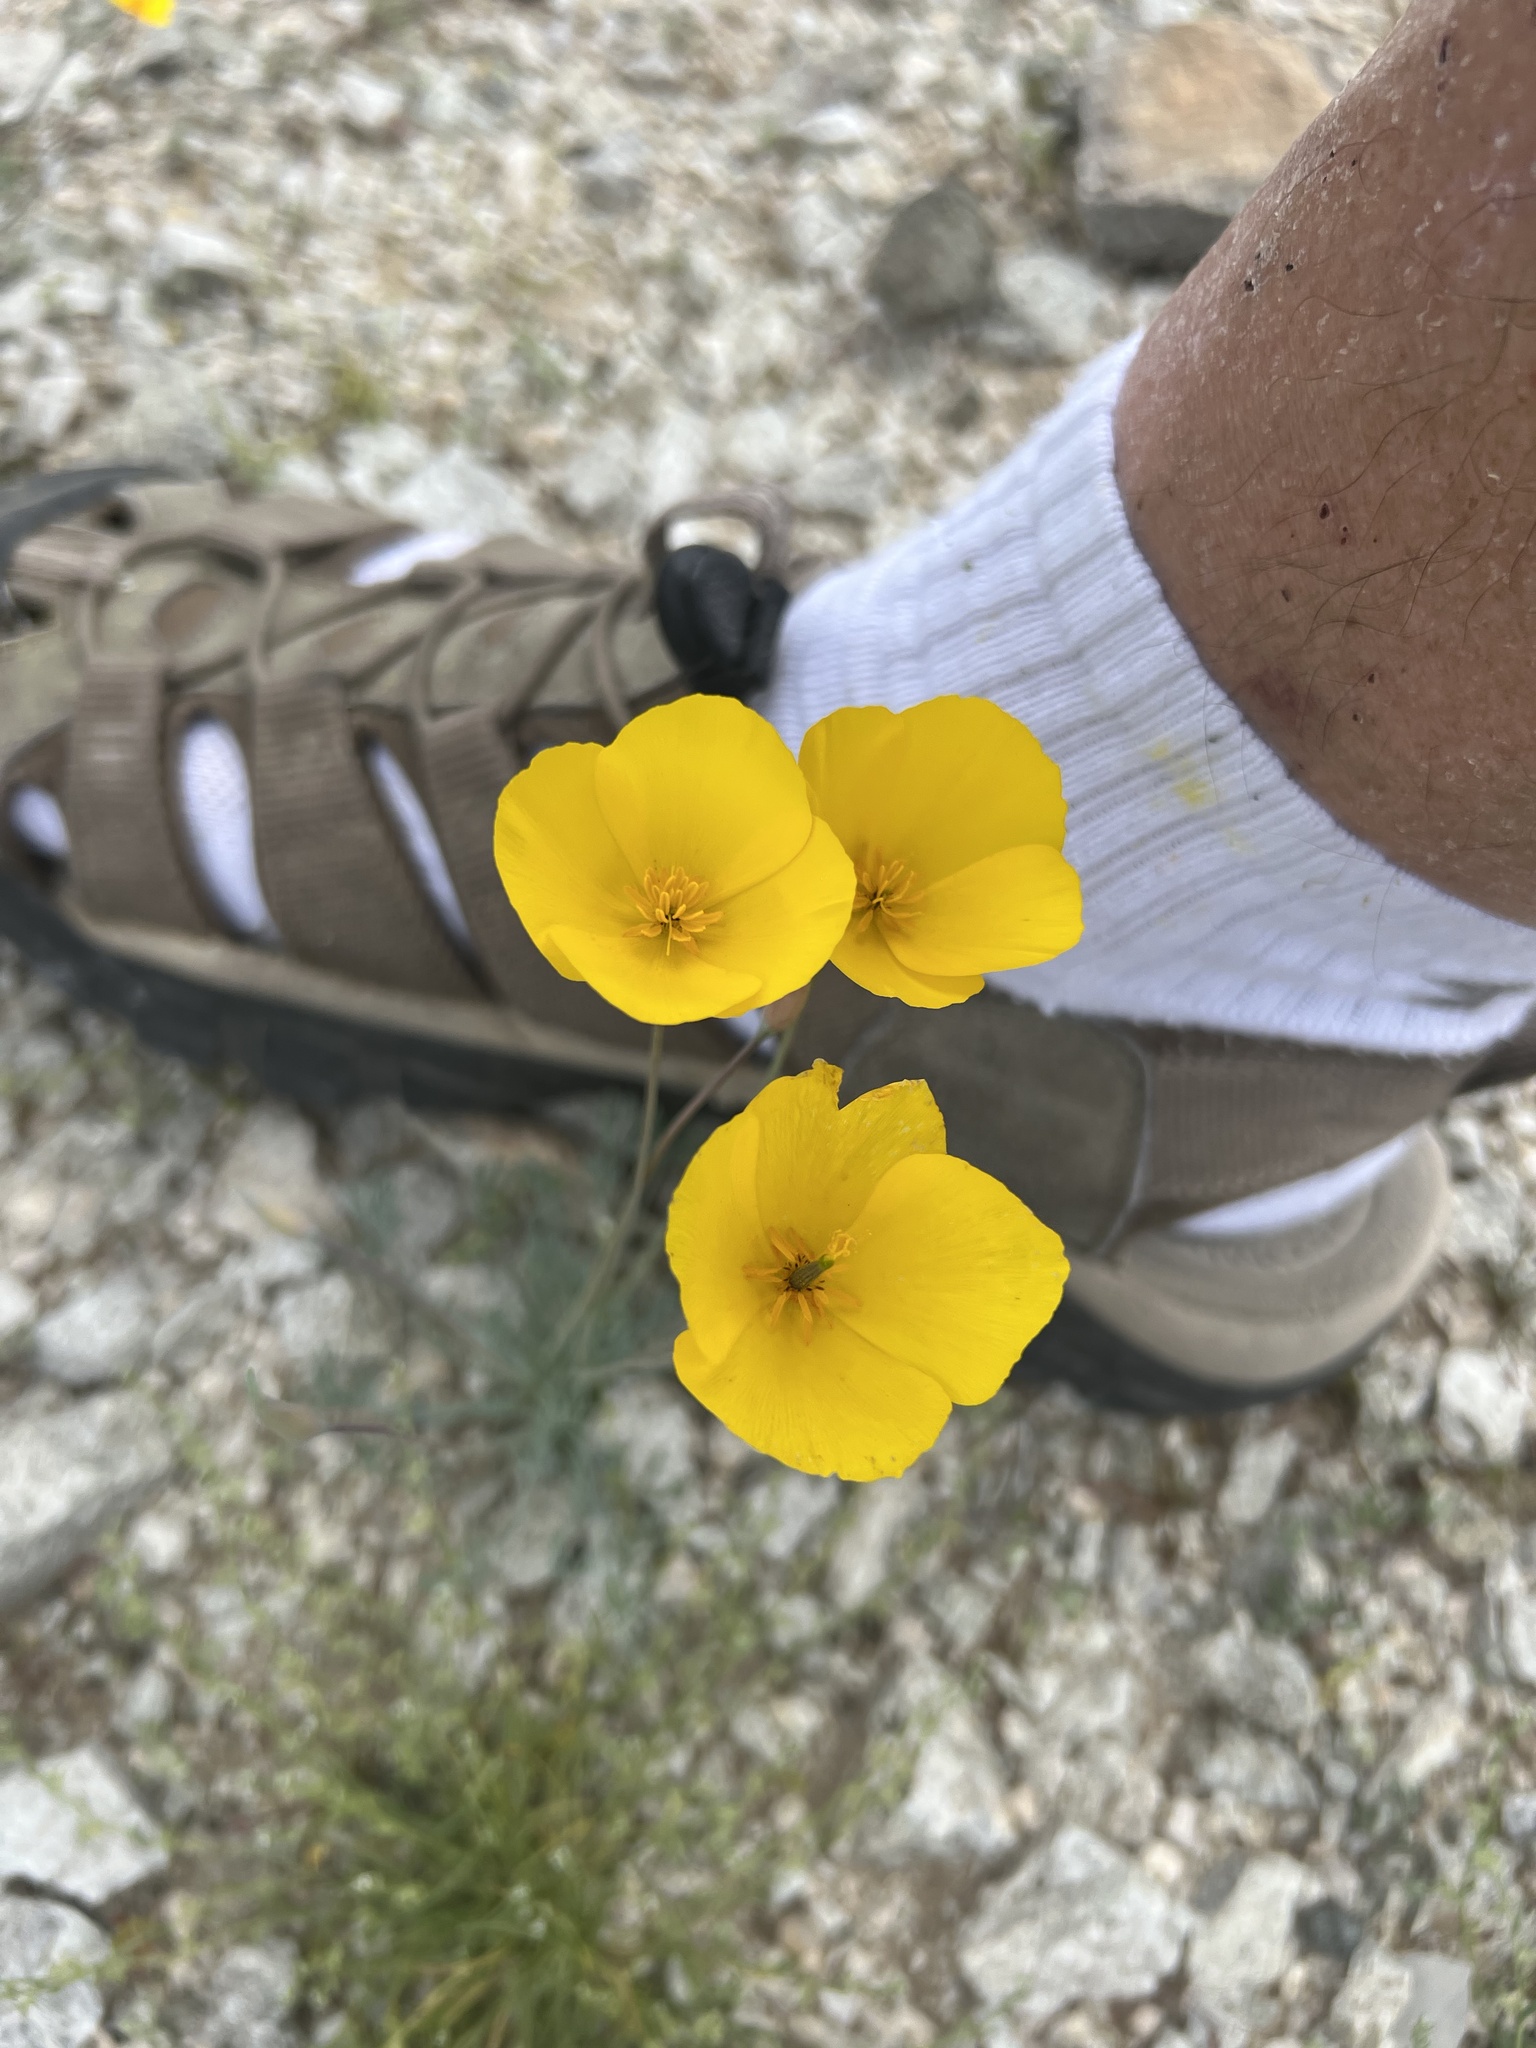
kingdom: Plantae
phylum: Tracheophyta
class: Magnoliopsida
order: Ranunculales
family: Papaveraceae
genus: Eschscholzia
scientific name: Eschscholzia glyptosperma
